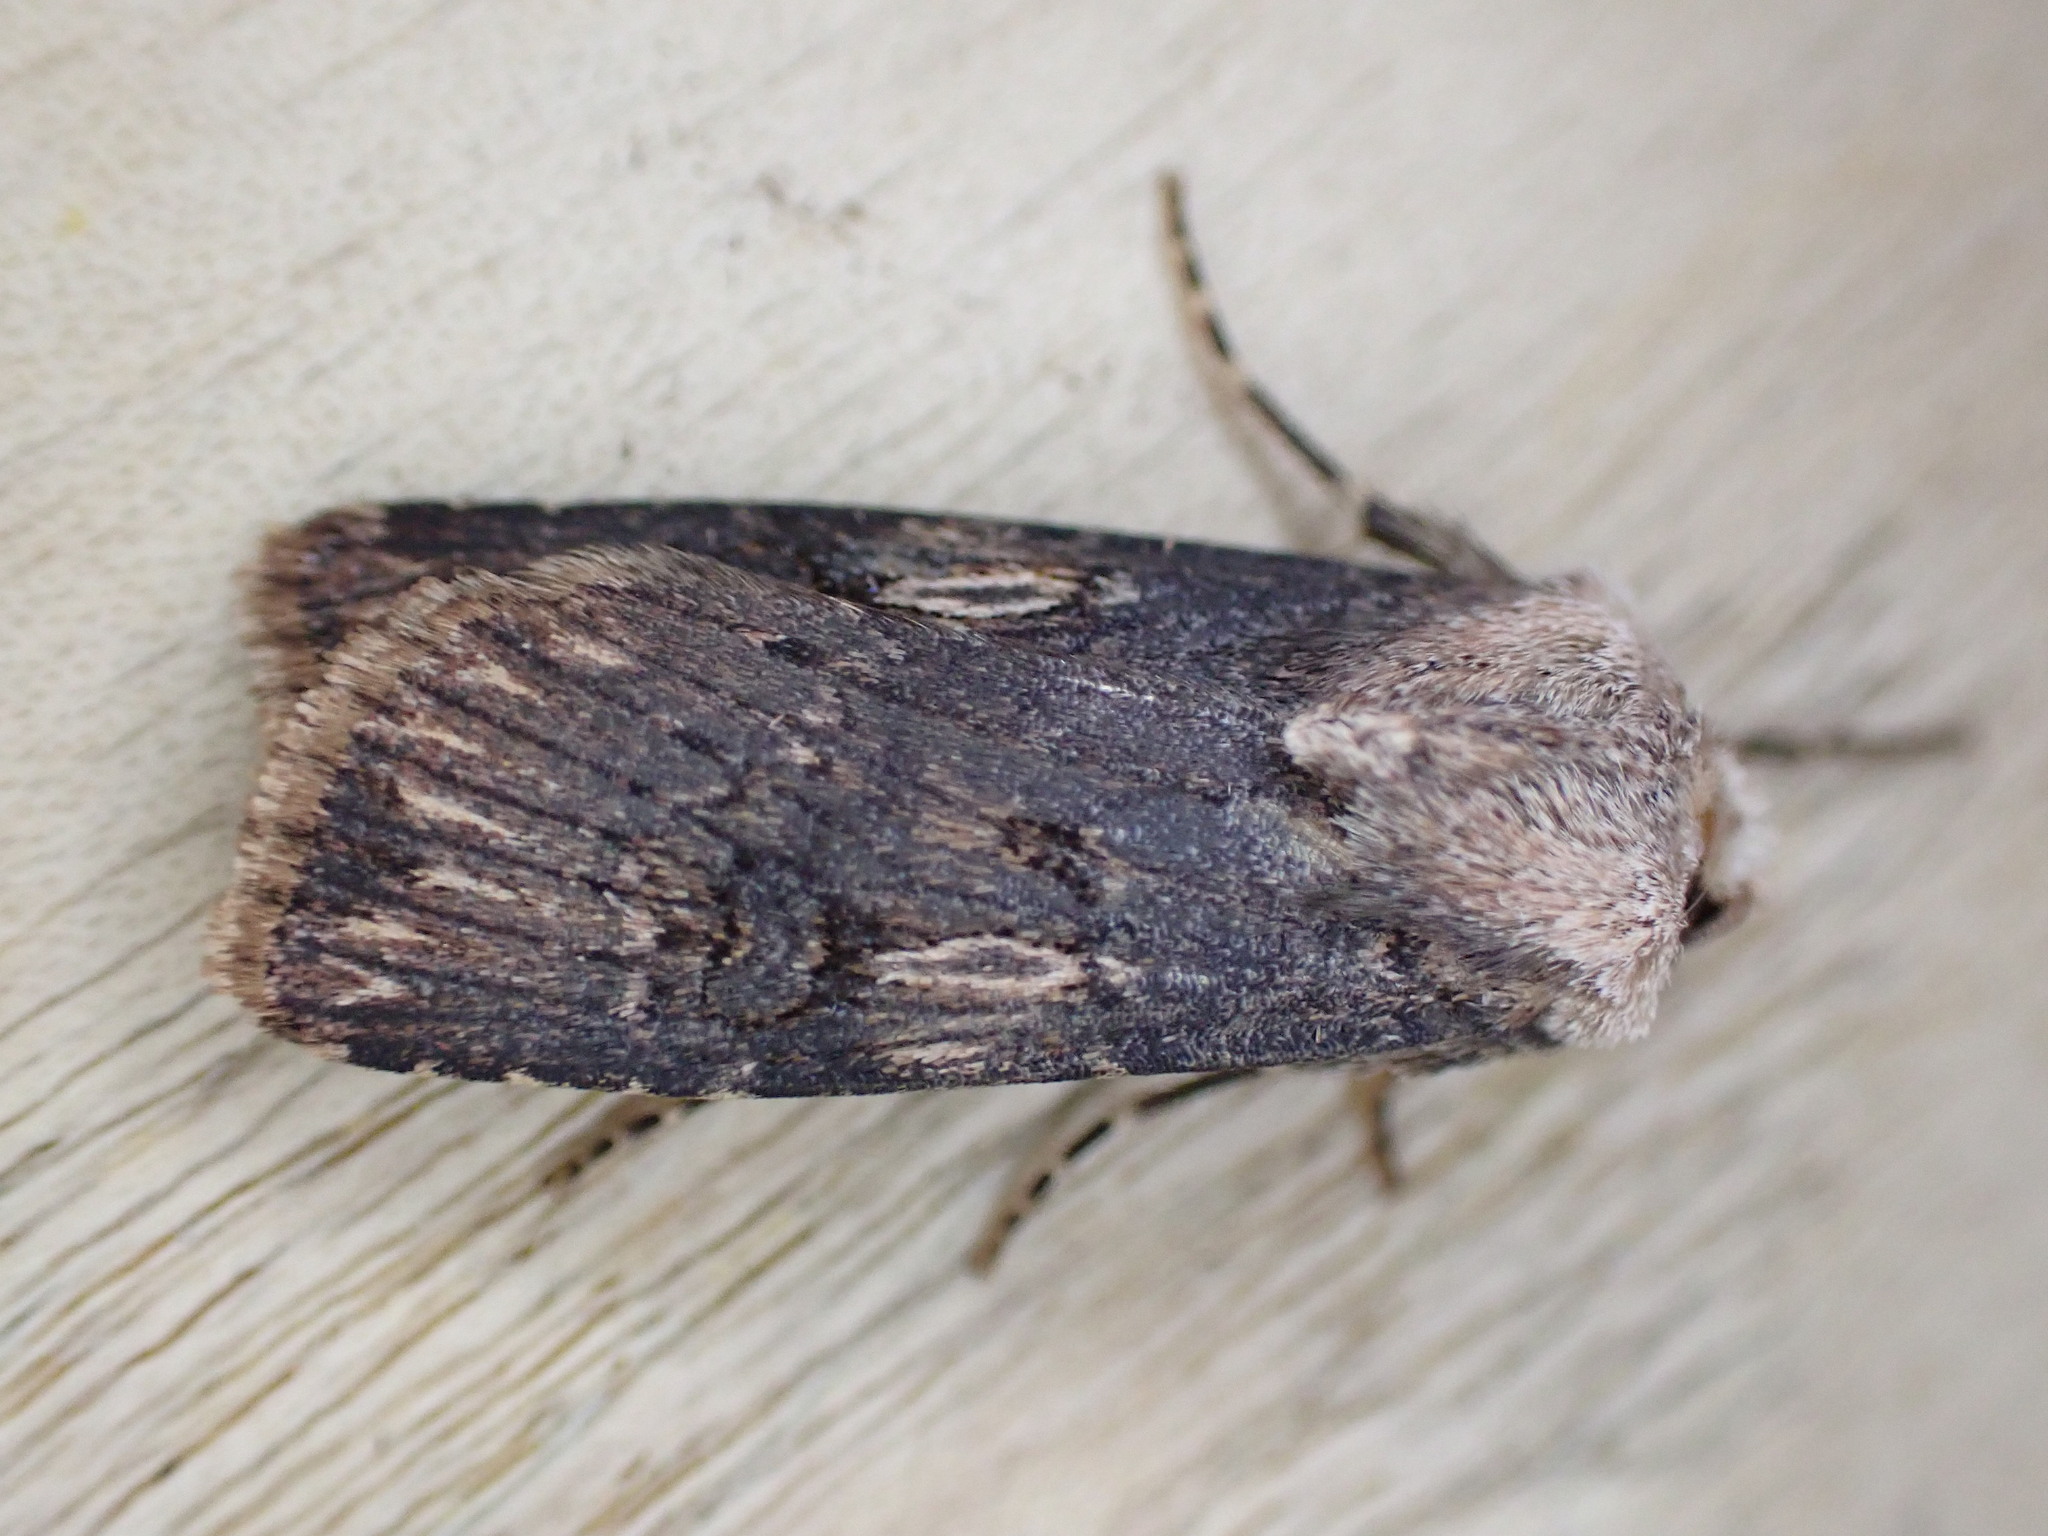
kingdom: Animalia
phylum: Arthropoda
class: Insecta
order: Lepidoptera
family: Noctuidae
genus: Agrotis
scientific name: Agrotis puta
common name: Shuttle-shaped dart
